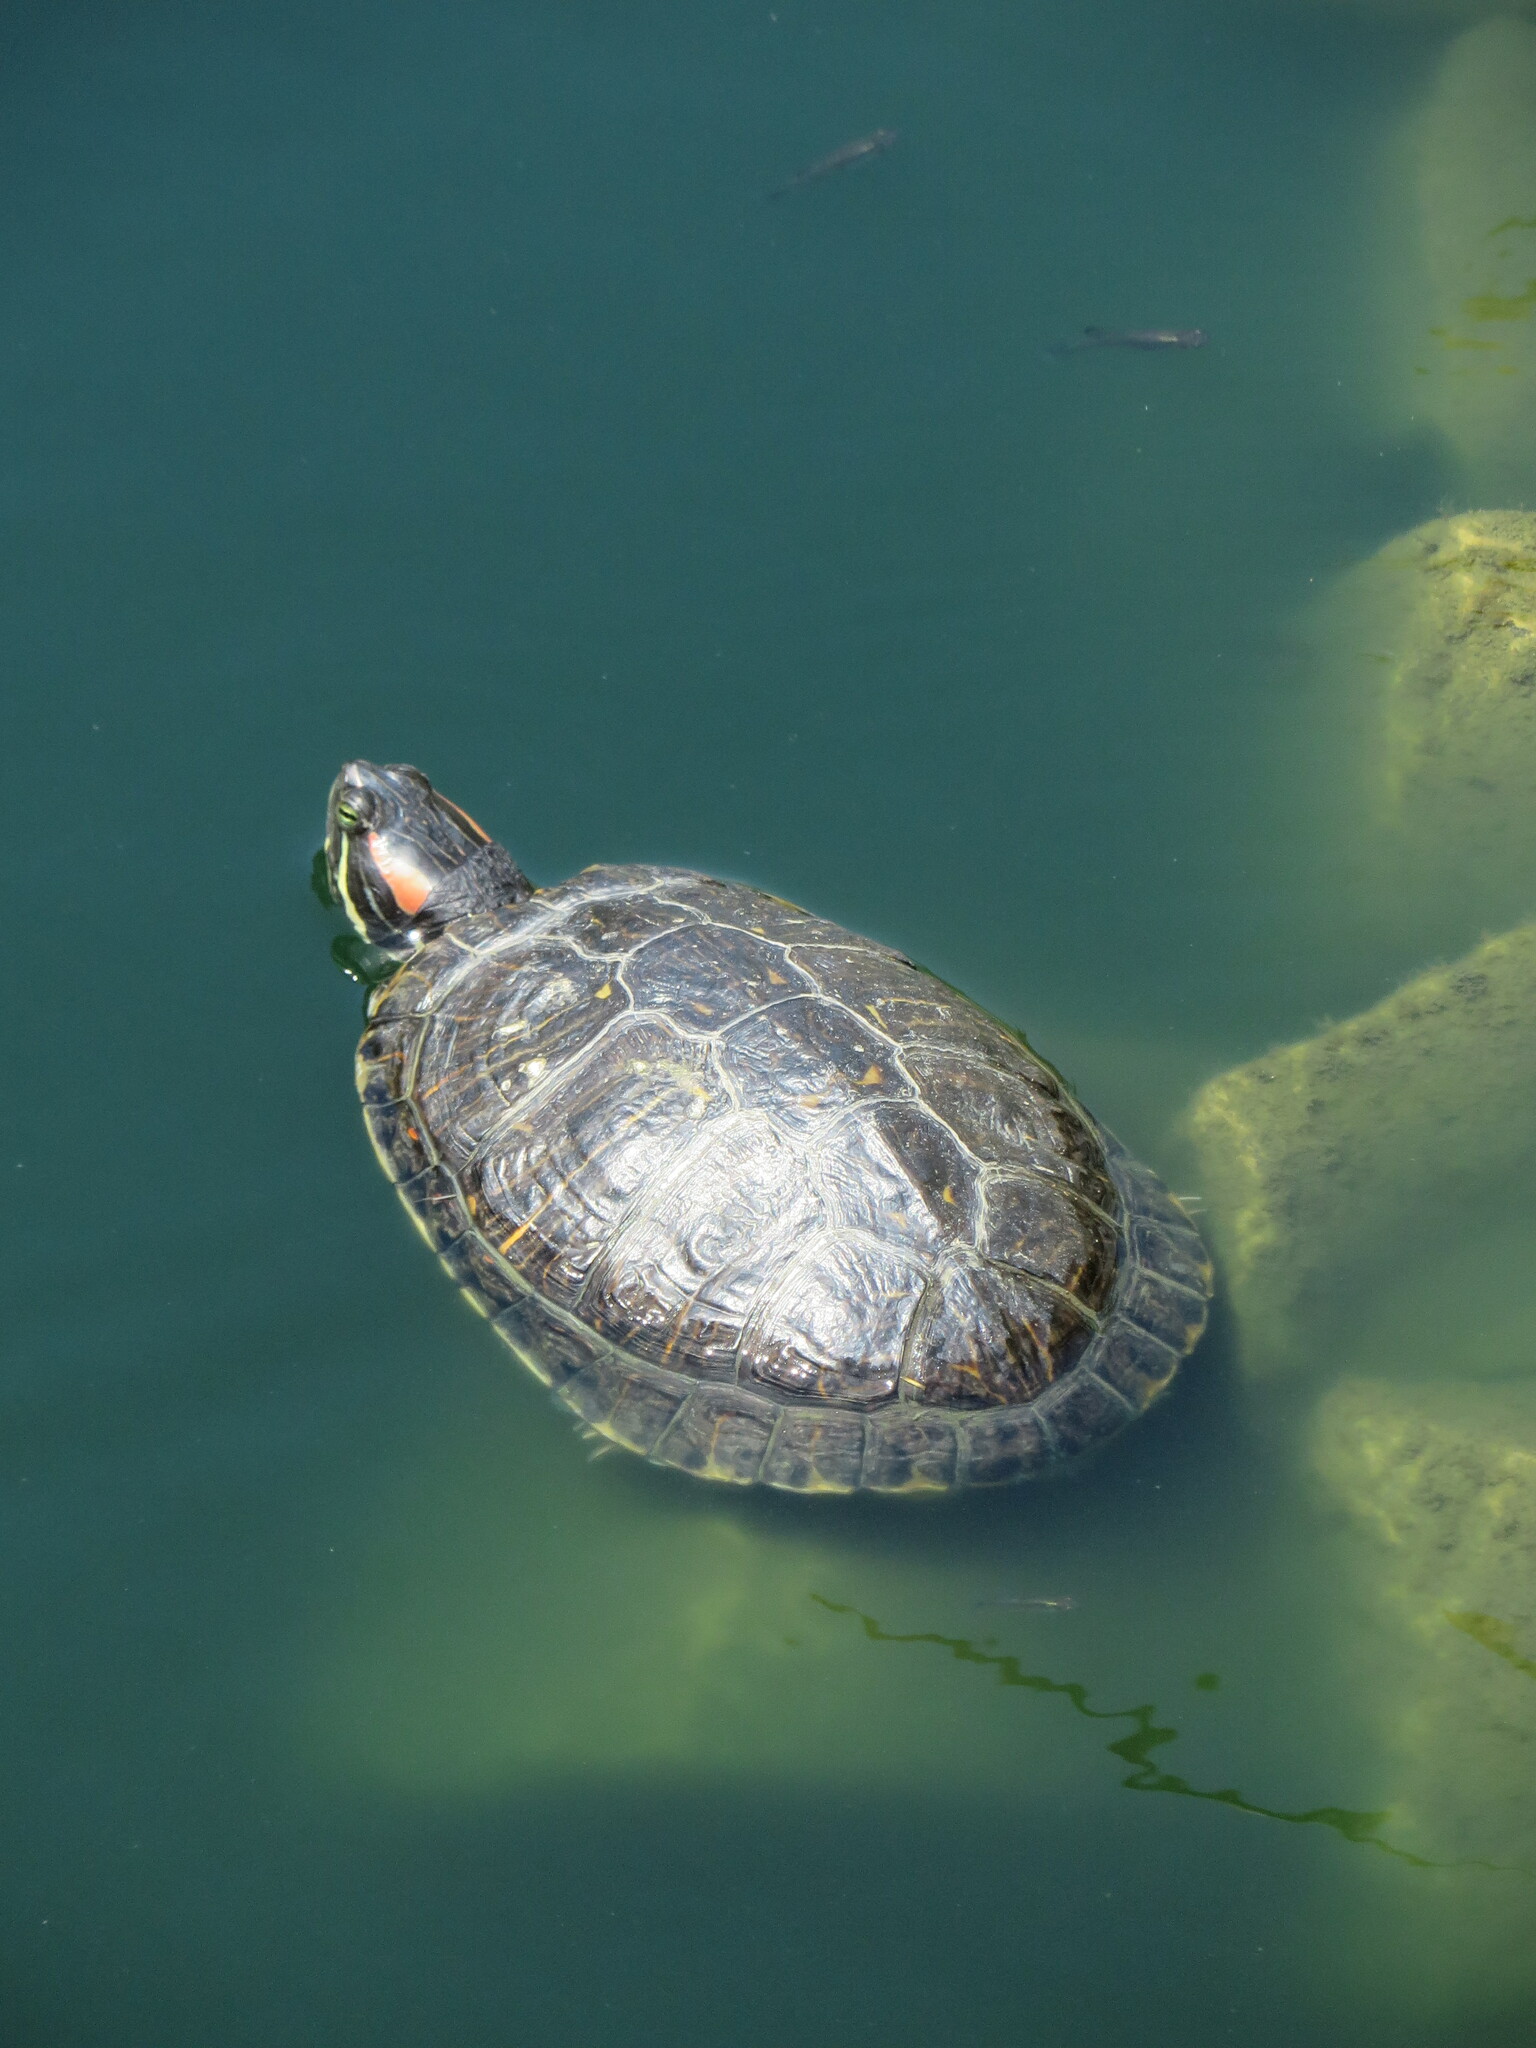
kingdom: Animalia
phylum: Chordata
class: Testudines
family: Emydidae
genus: Trachemys
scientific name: Trachemys scripta
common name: Slider
